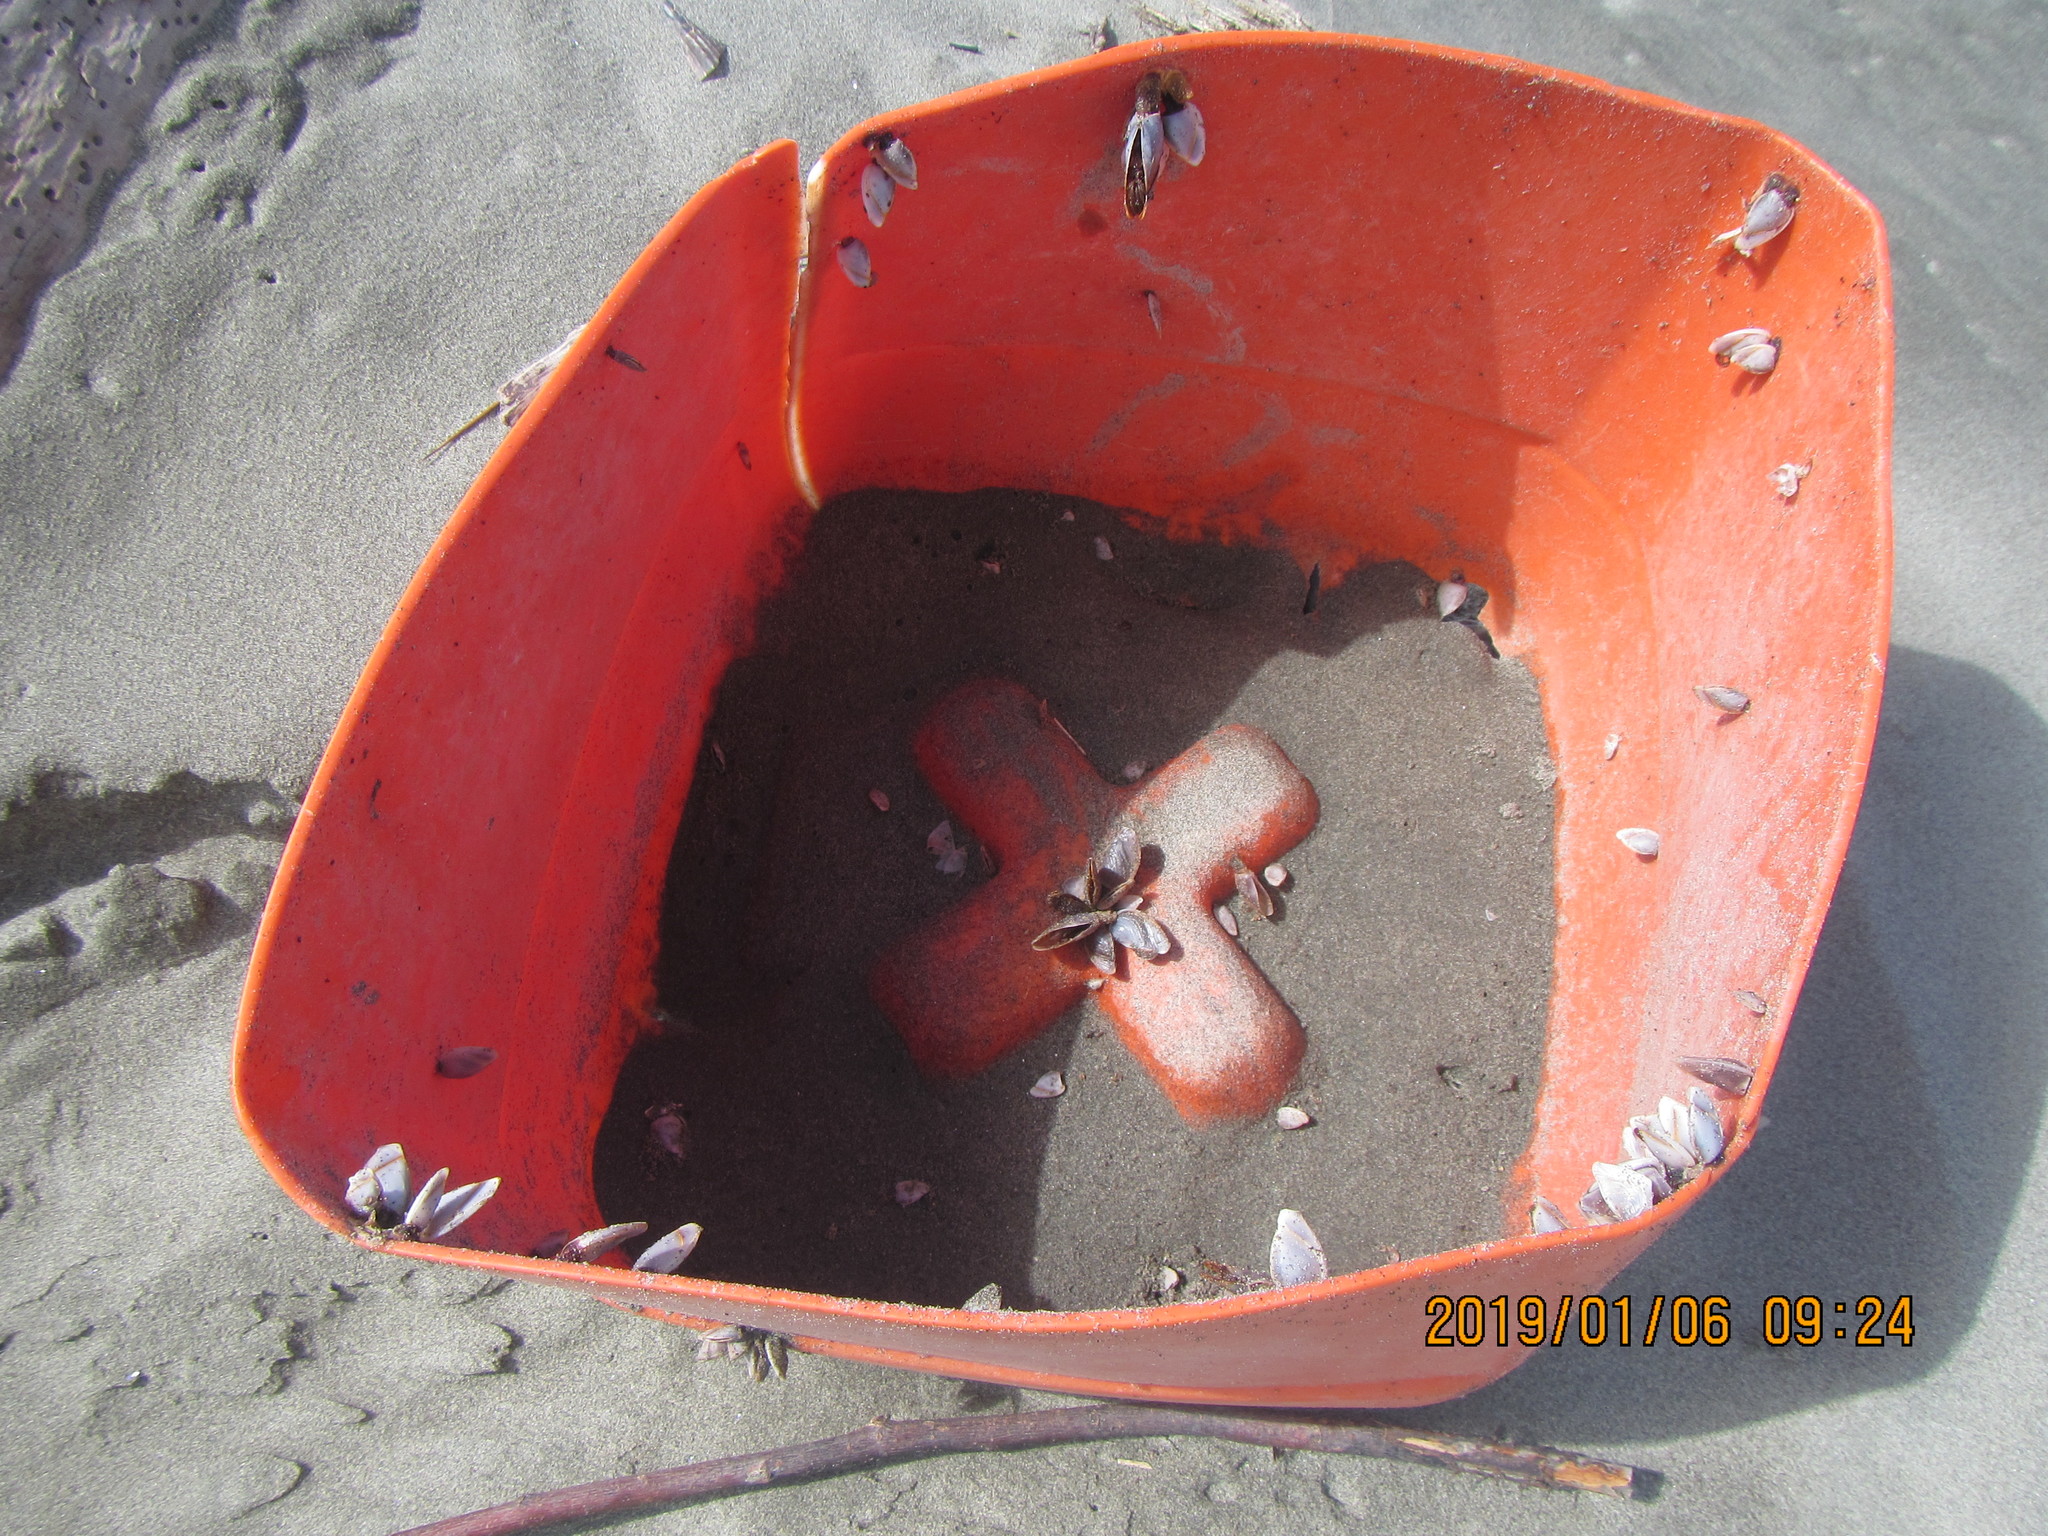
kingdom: Animalia
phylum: Arthropoda
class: Maxillopoda
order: Pedunculata
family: Lepadidae
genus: Lepas
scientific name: Lepas anatifera
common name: Common goose barnacle
